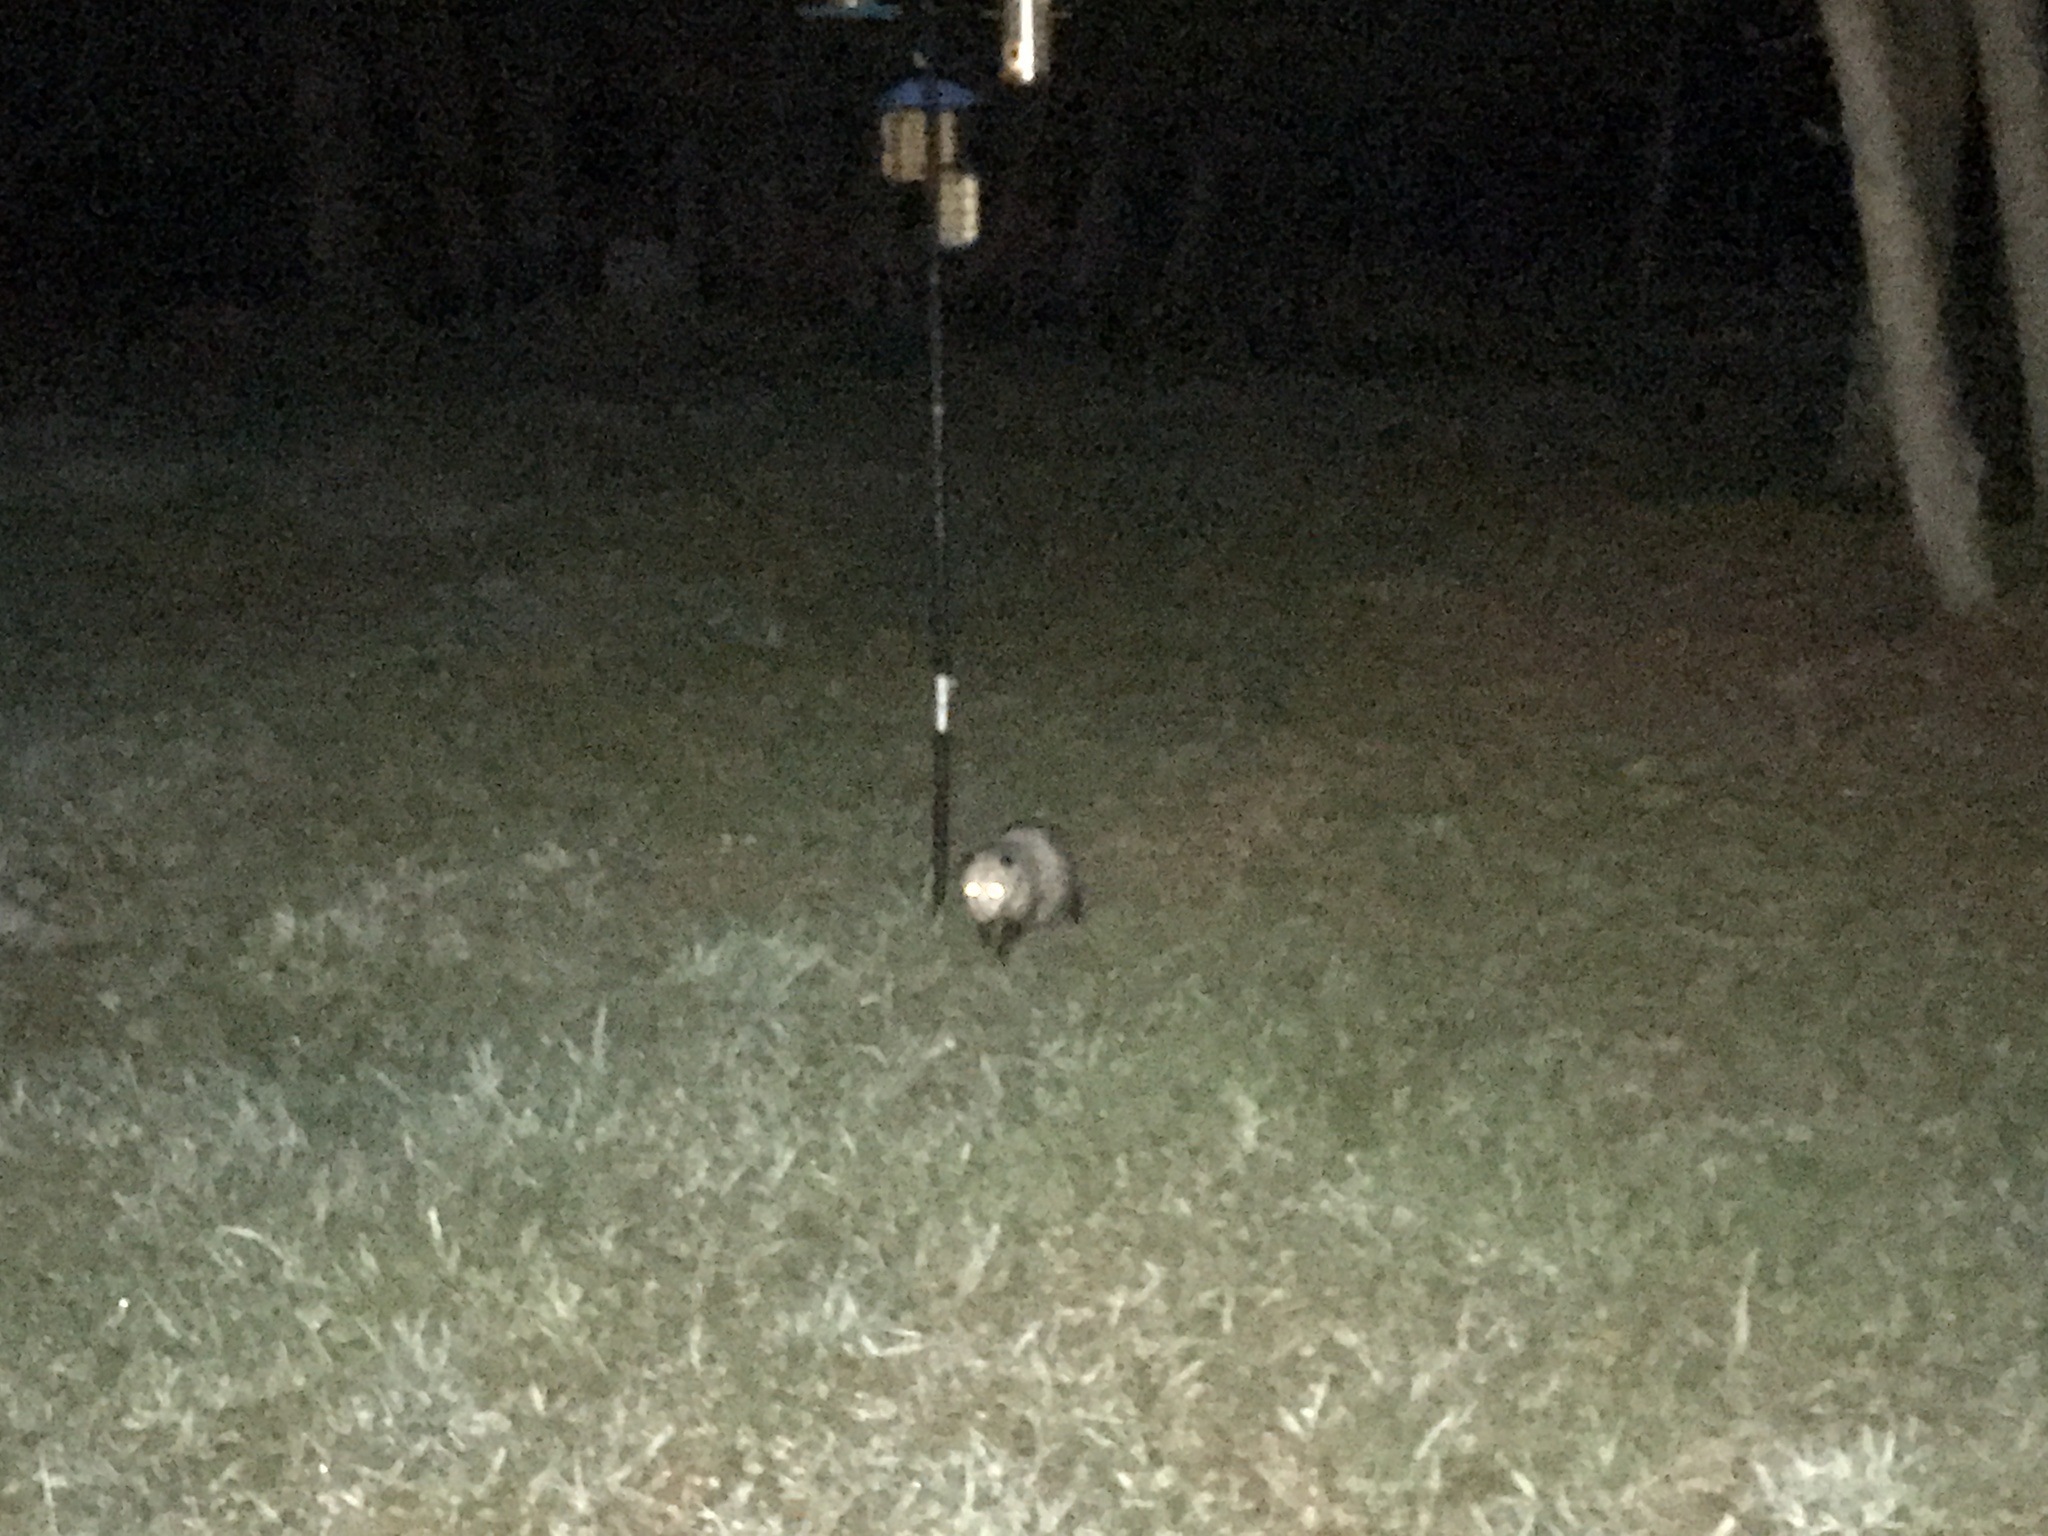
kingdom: Animalia
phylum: Chordata
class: Mammalia
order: Didelphimorphia
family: Didelphidae
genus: Didelphis
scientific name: Didelphis virginiana
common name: Virginia opossum
